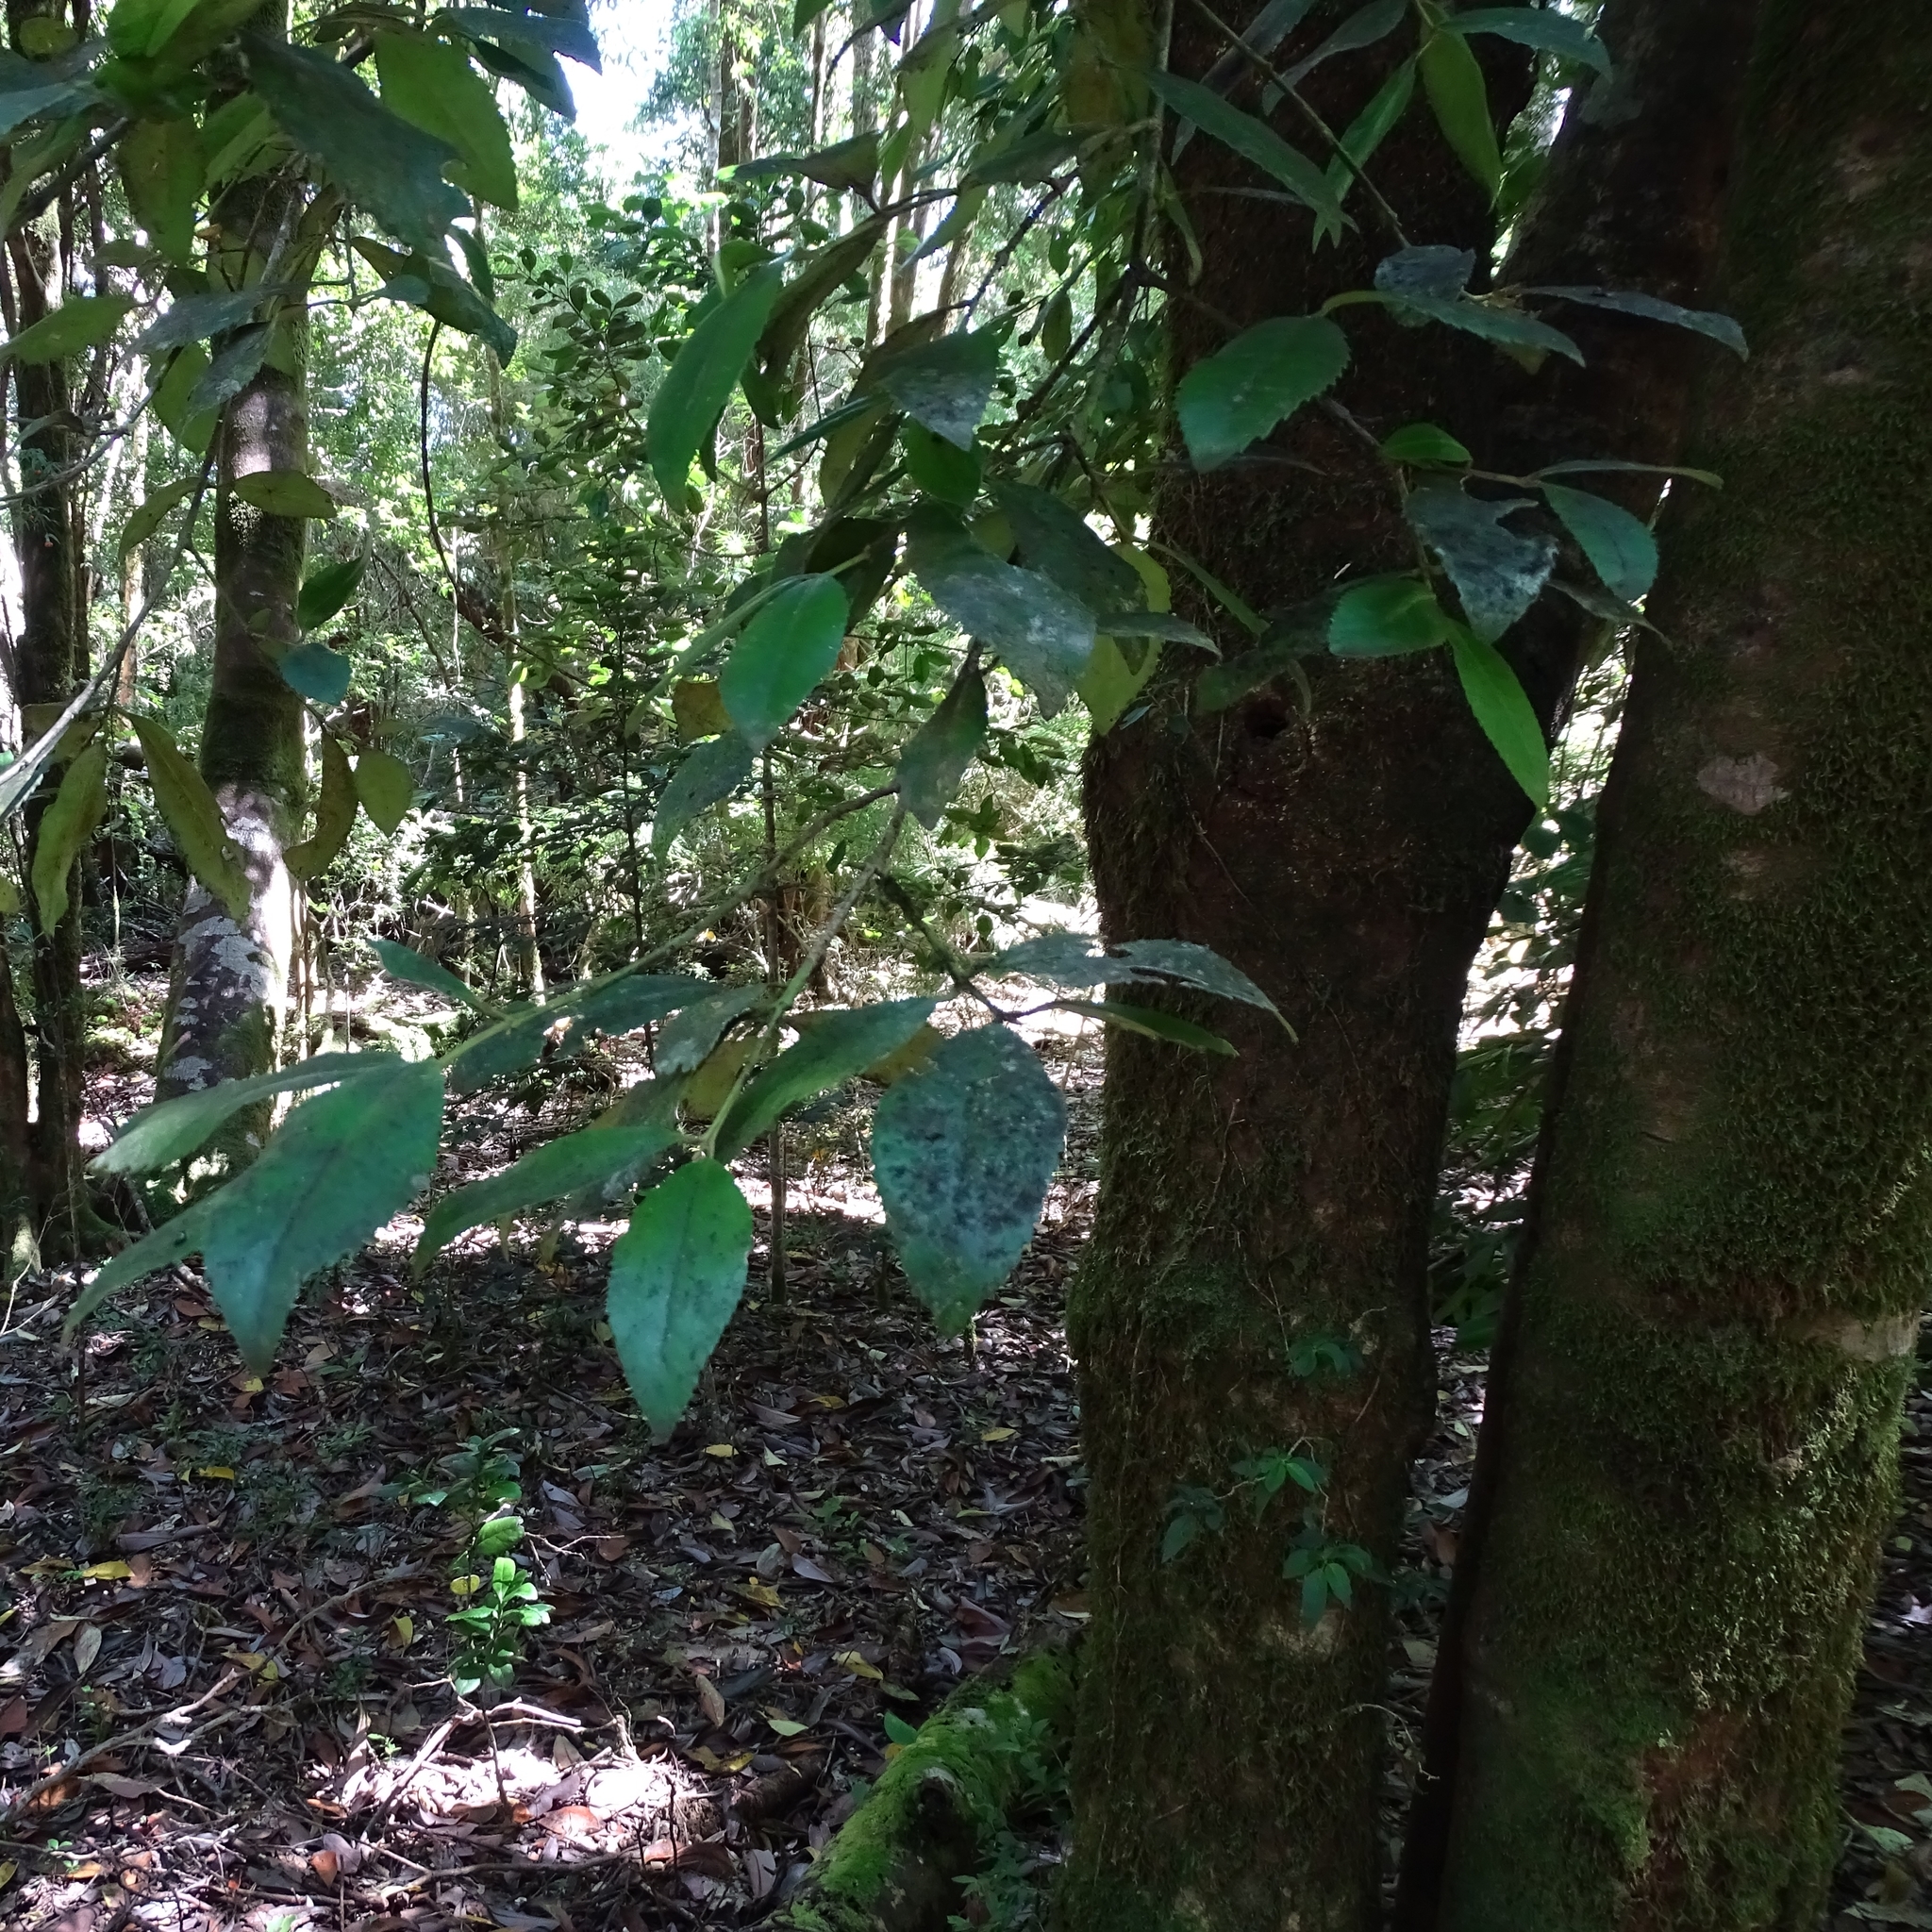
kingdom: Plantae
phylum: Tracheophyta
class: Magnoliopsida
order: Laurales
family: Atherospermataceae
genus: Laureliopsis
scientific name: Laureliopsis philippiana
